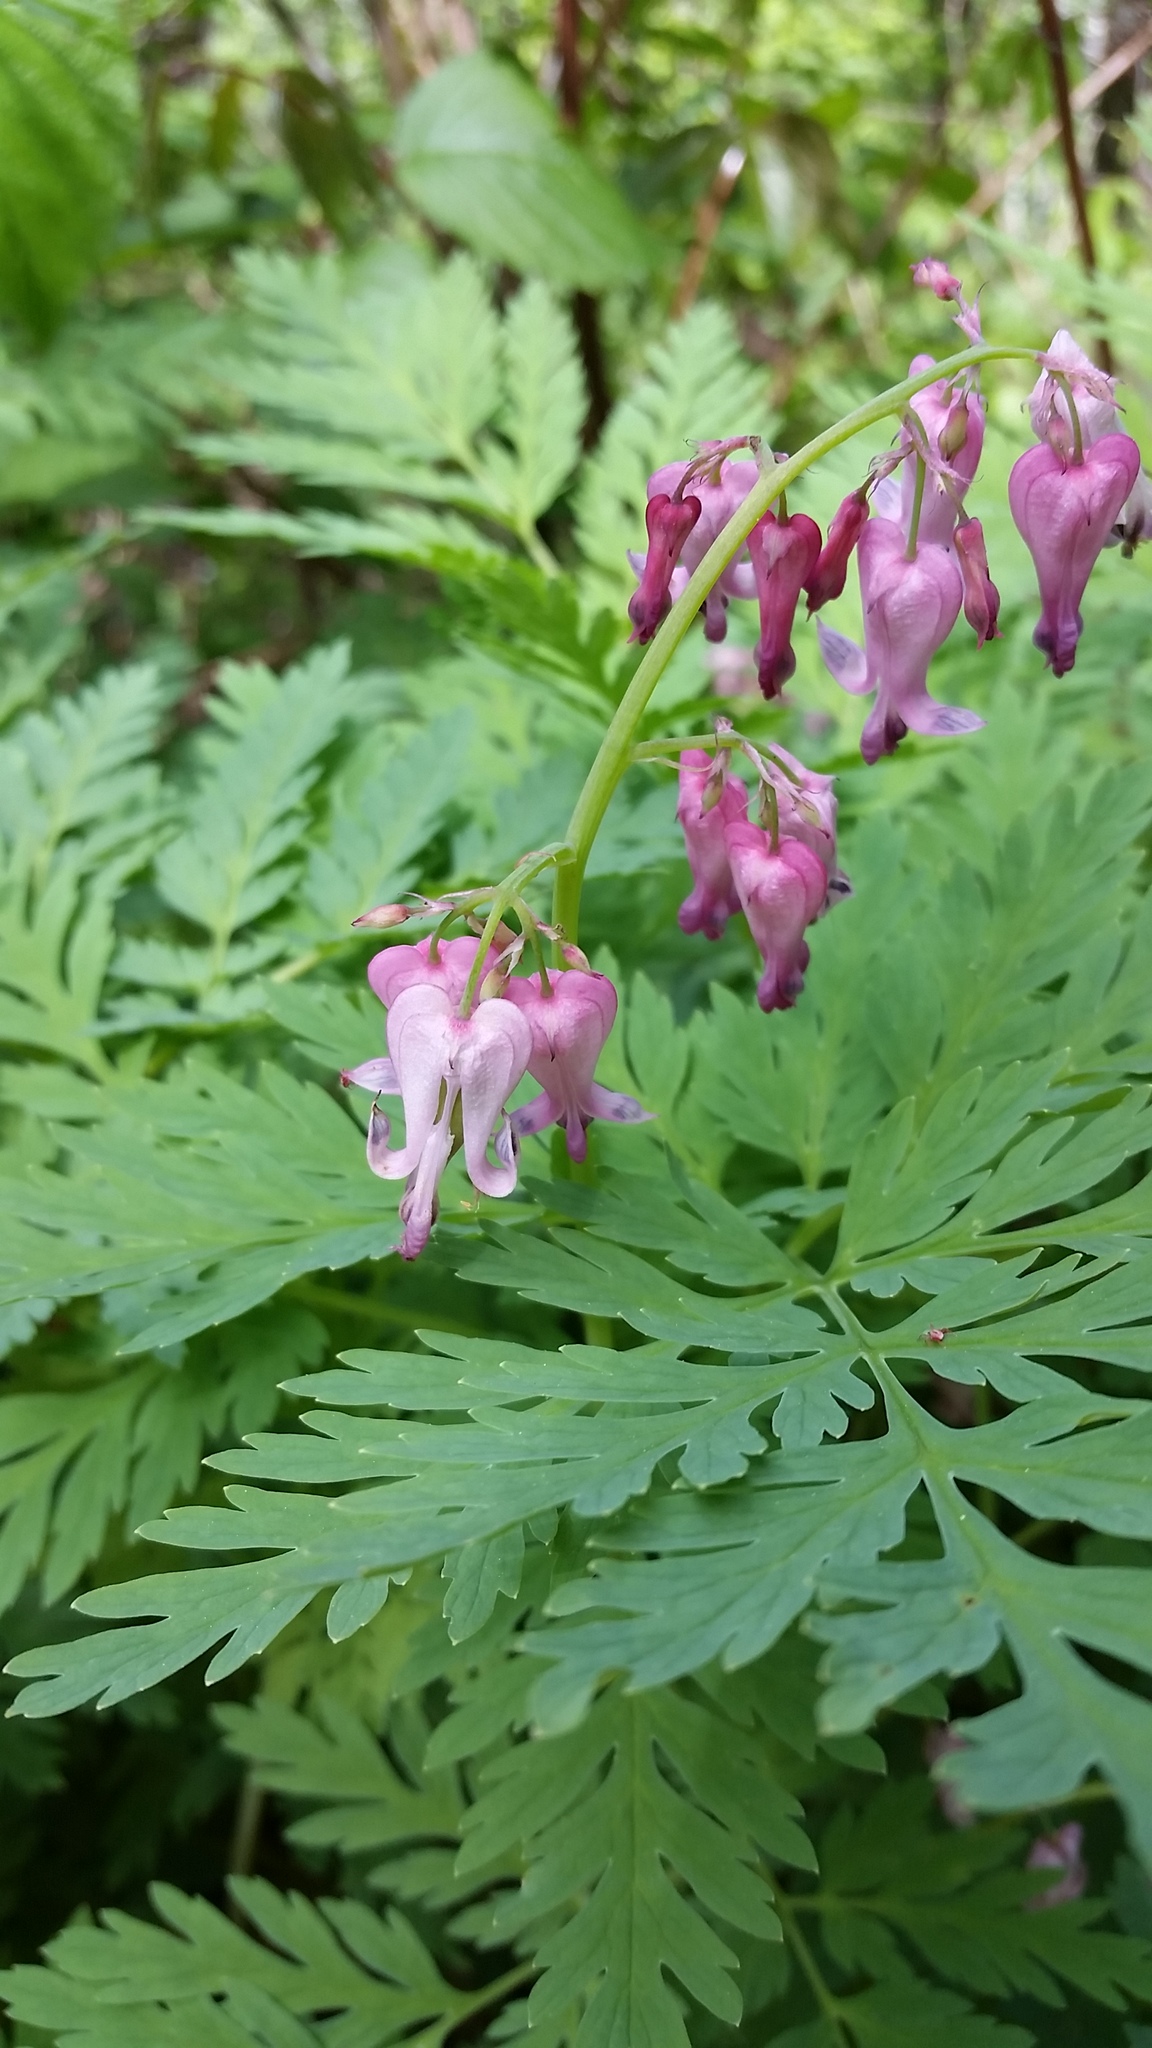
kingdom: Plantae
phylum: Tracheophyta
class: Magnoliopsida
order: Ranunculales
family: Papaveraceae
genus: Dicentra
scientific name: Dicentra eximia
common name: Turkey-corn
